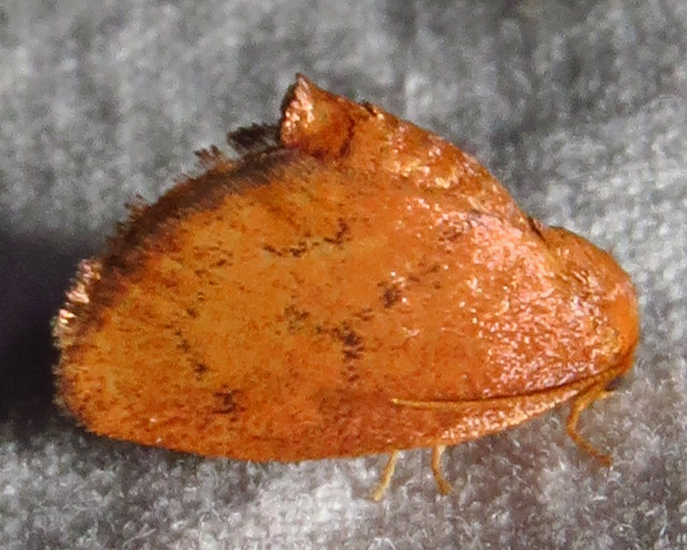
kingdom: Animalia
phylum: Arthropoda
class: Insecta
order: Lepidoptera
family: Limacodidae
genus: Heterogenea
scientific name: Heterogenea shurtleffi
